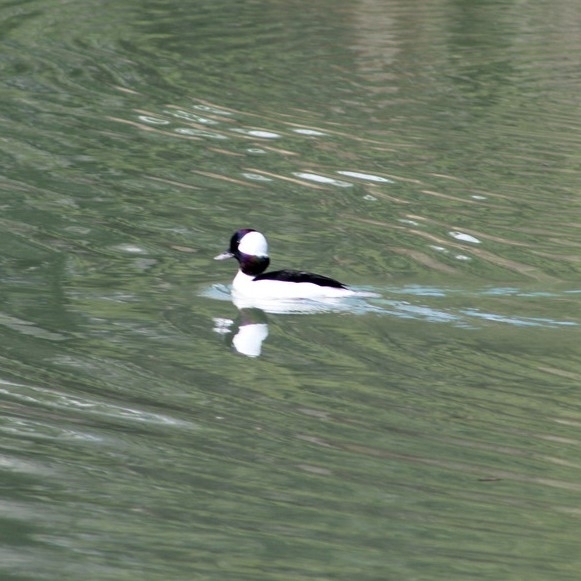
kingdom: Animalia
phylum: Chordata
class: Aves
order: Anseriformes
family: Anatidae
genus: Bucephala
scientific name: Bucephala albeola
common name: Bufflehead
